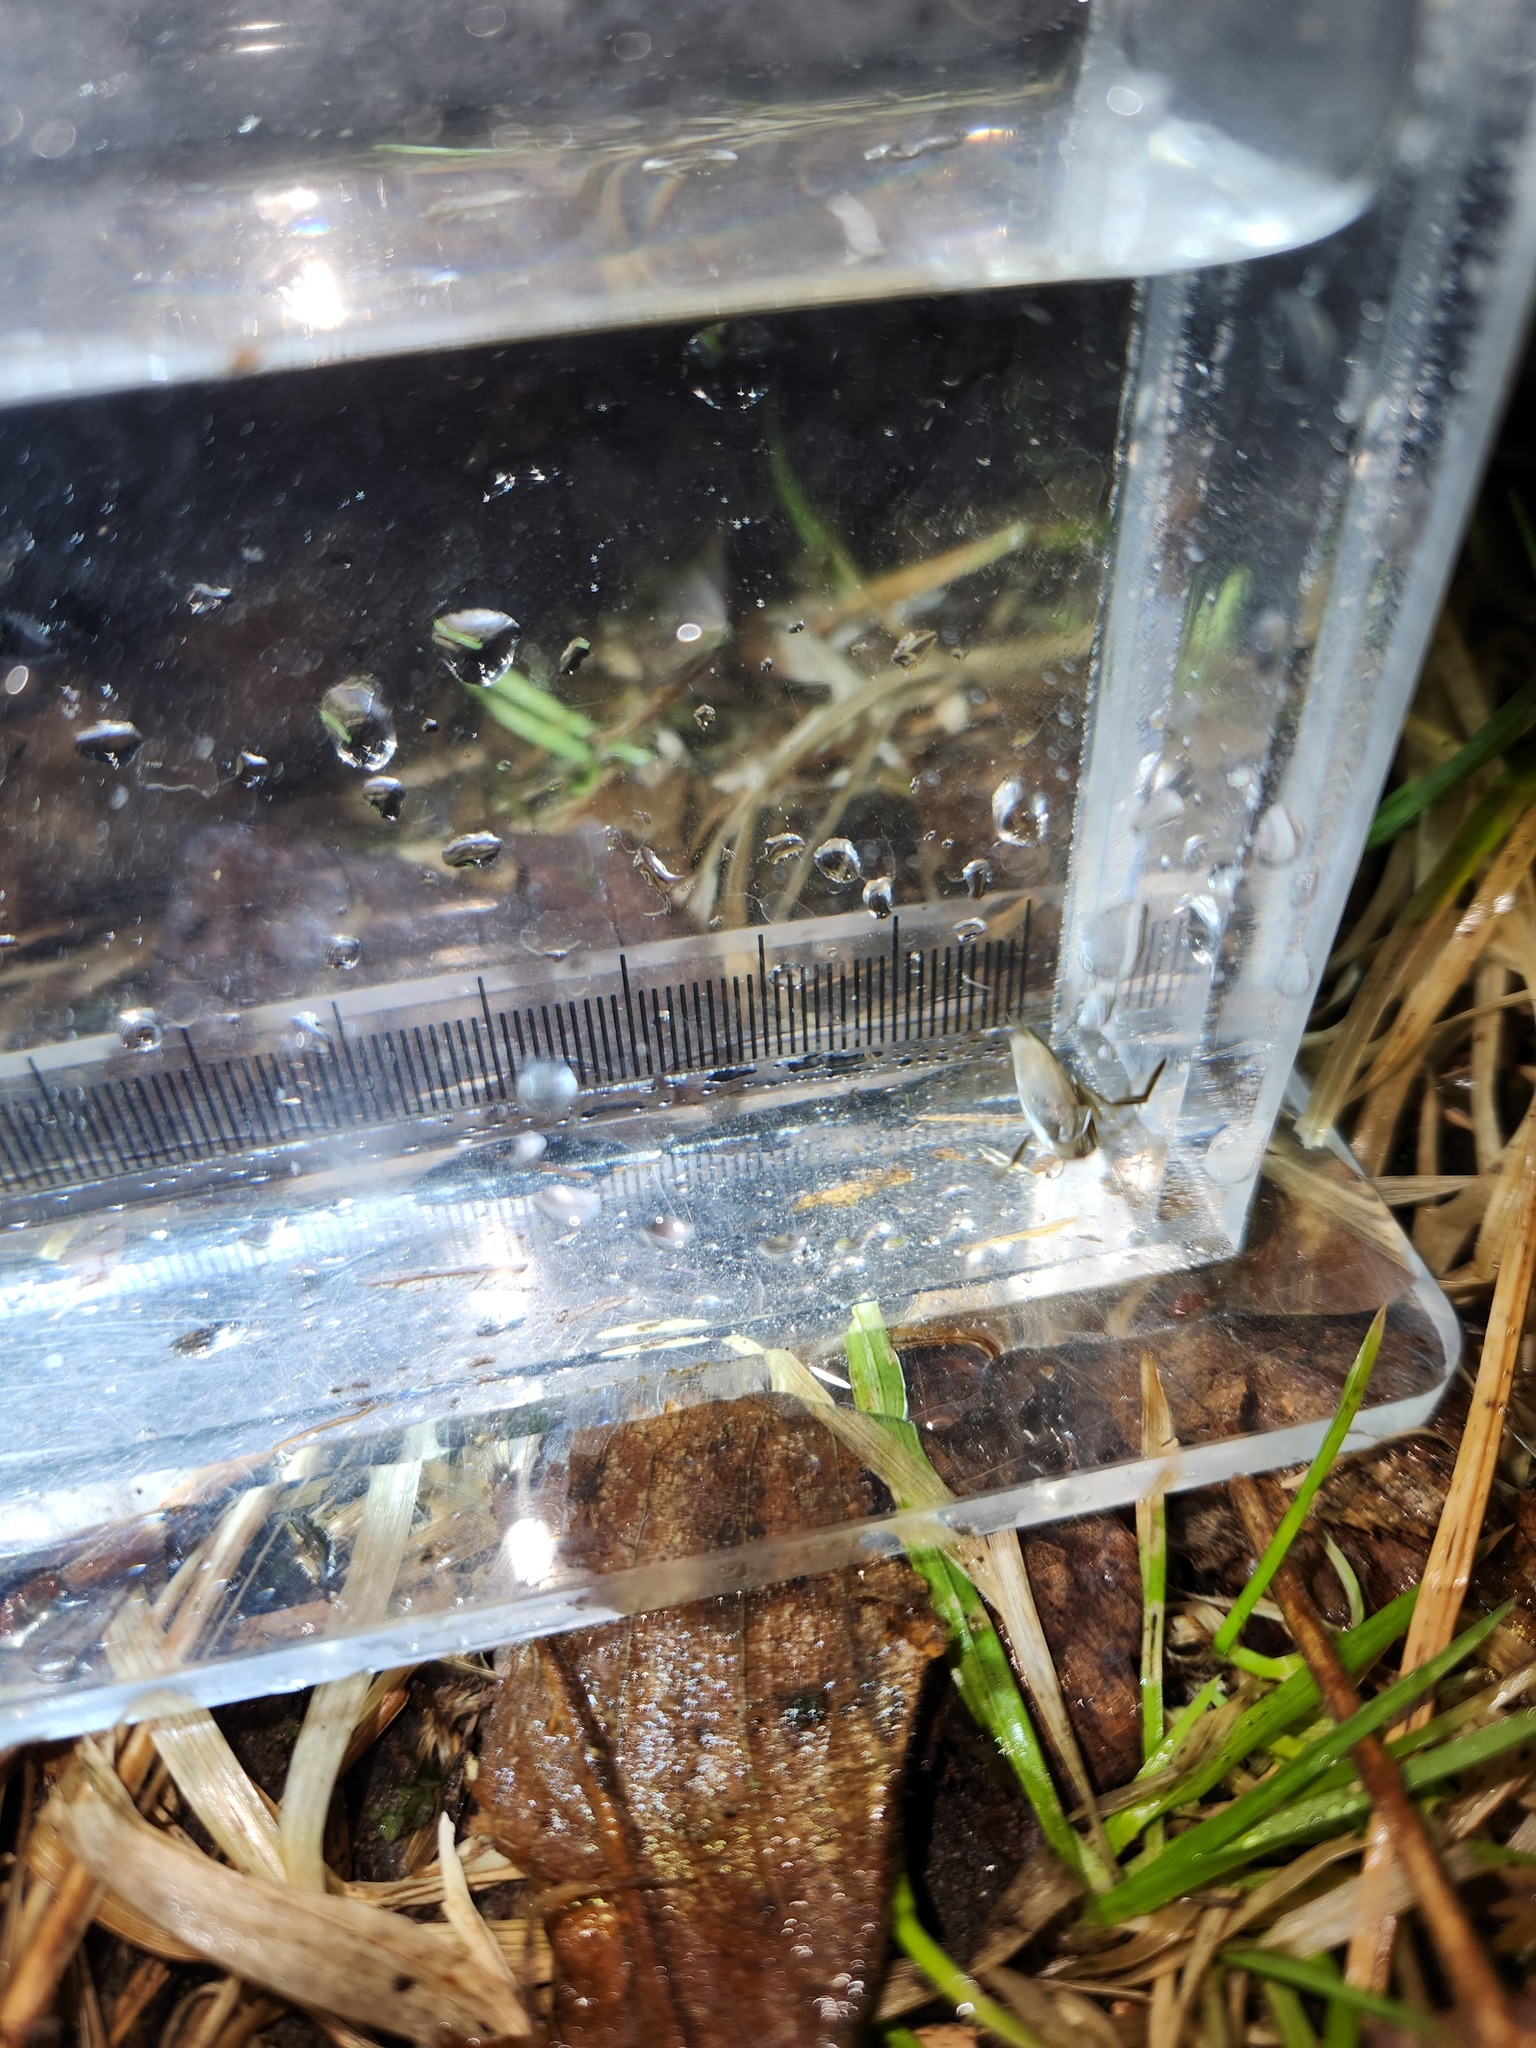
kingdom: Animalia
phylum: Arthropoda
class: Insecta
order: Hemiptera
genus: Paranecta
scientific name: Paranecta
